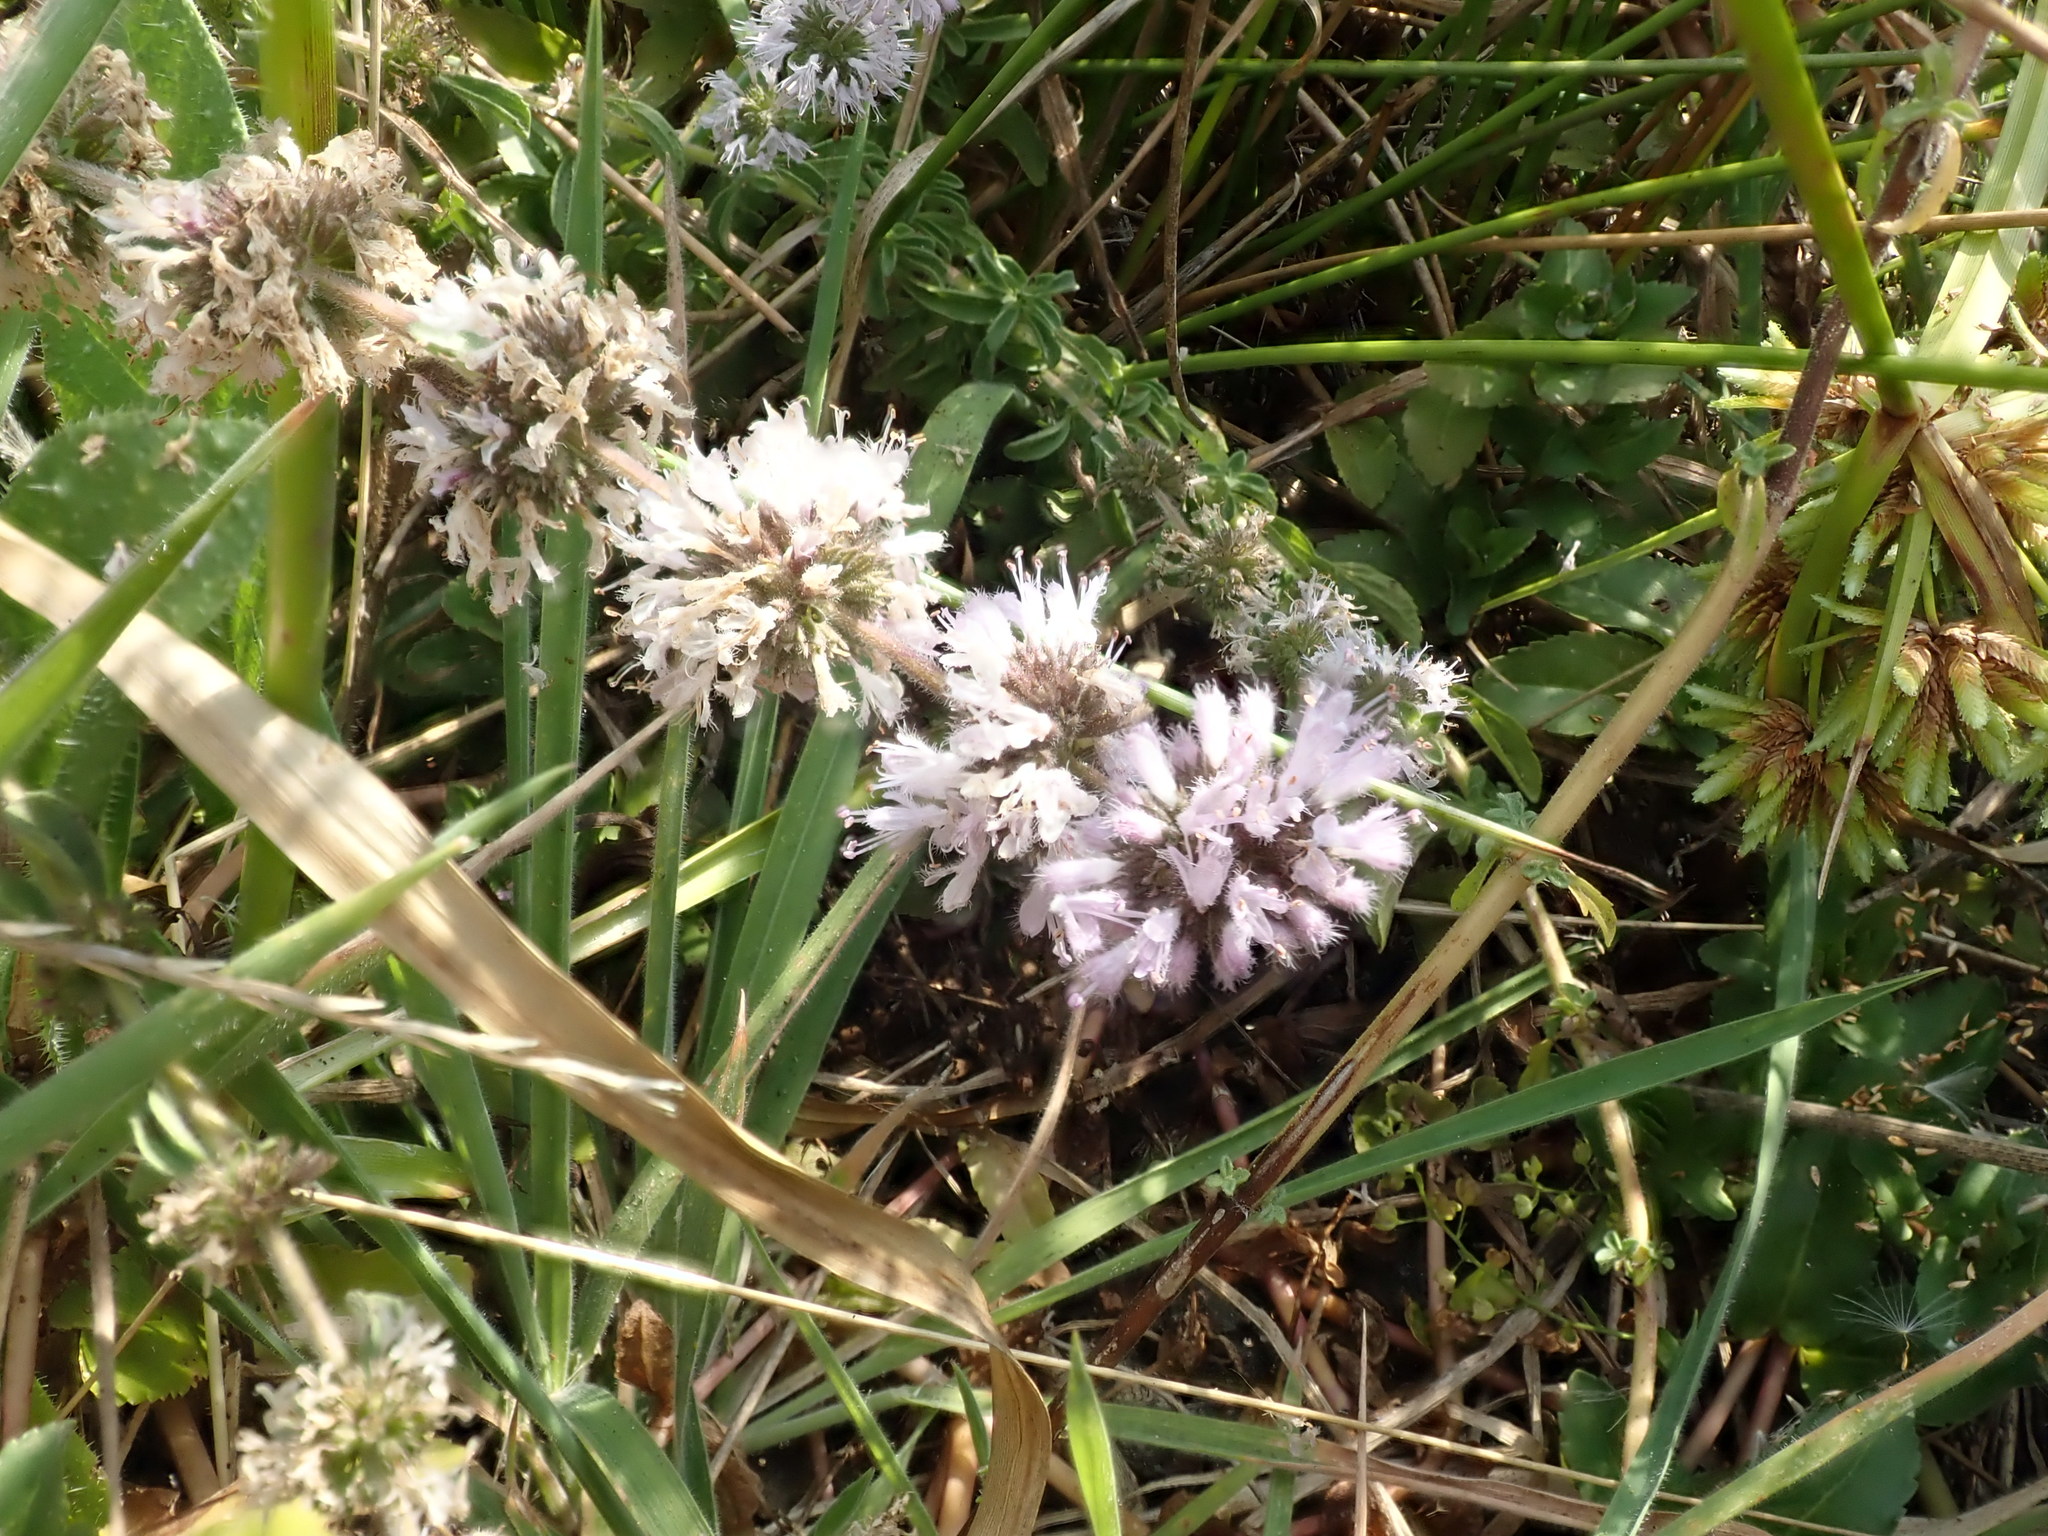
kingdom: Plantae
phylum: Tracheophyta
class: Magnoliopsida
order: Lamiales
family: Lamiaceae
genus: Mentha
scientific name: Mentha pulegium
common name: Pennyroyal
